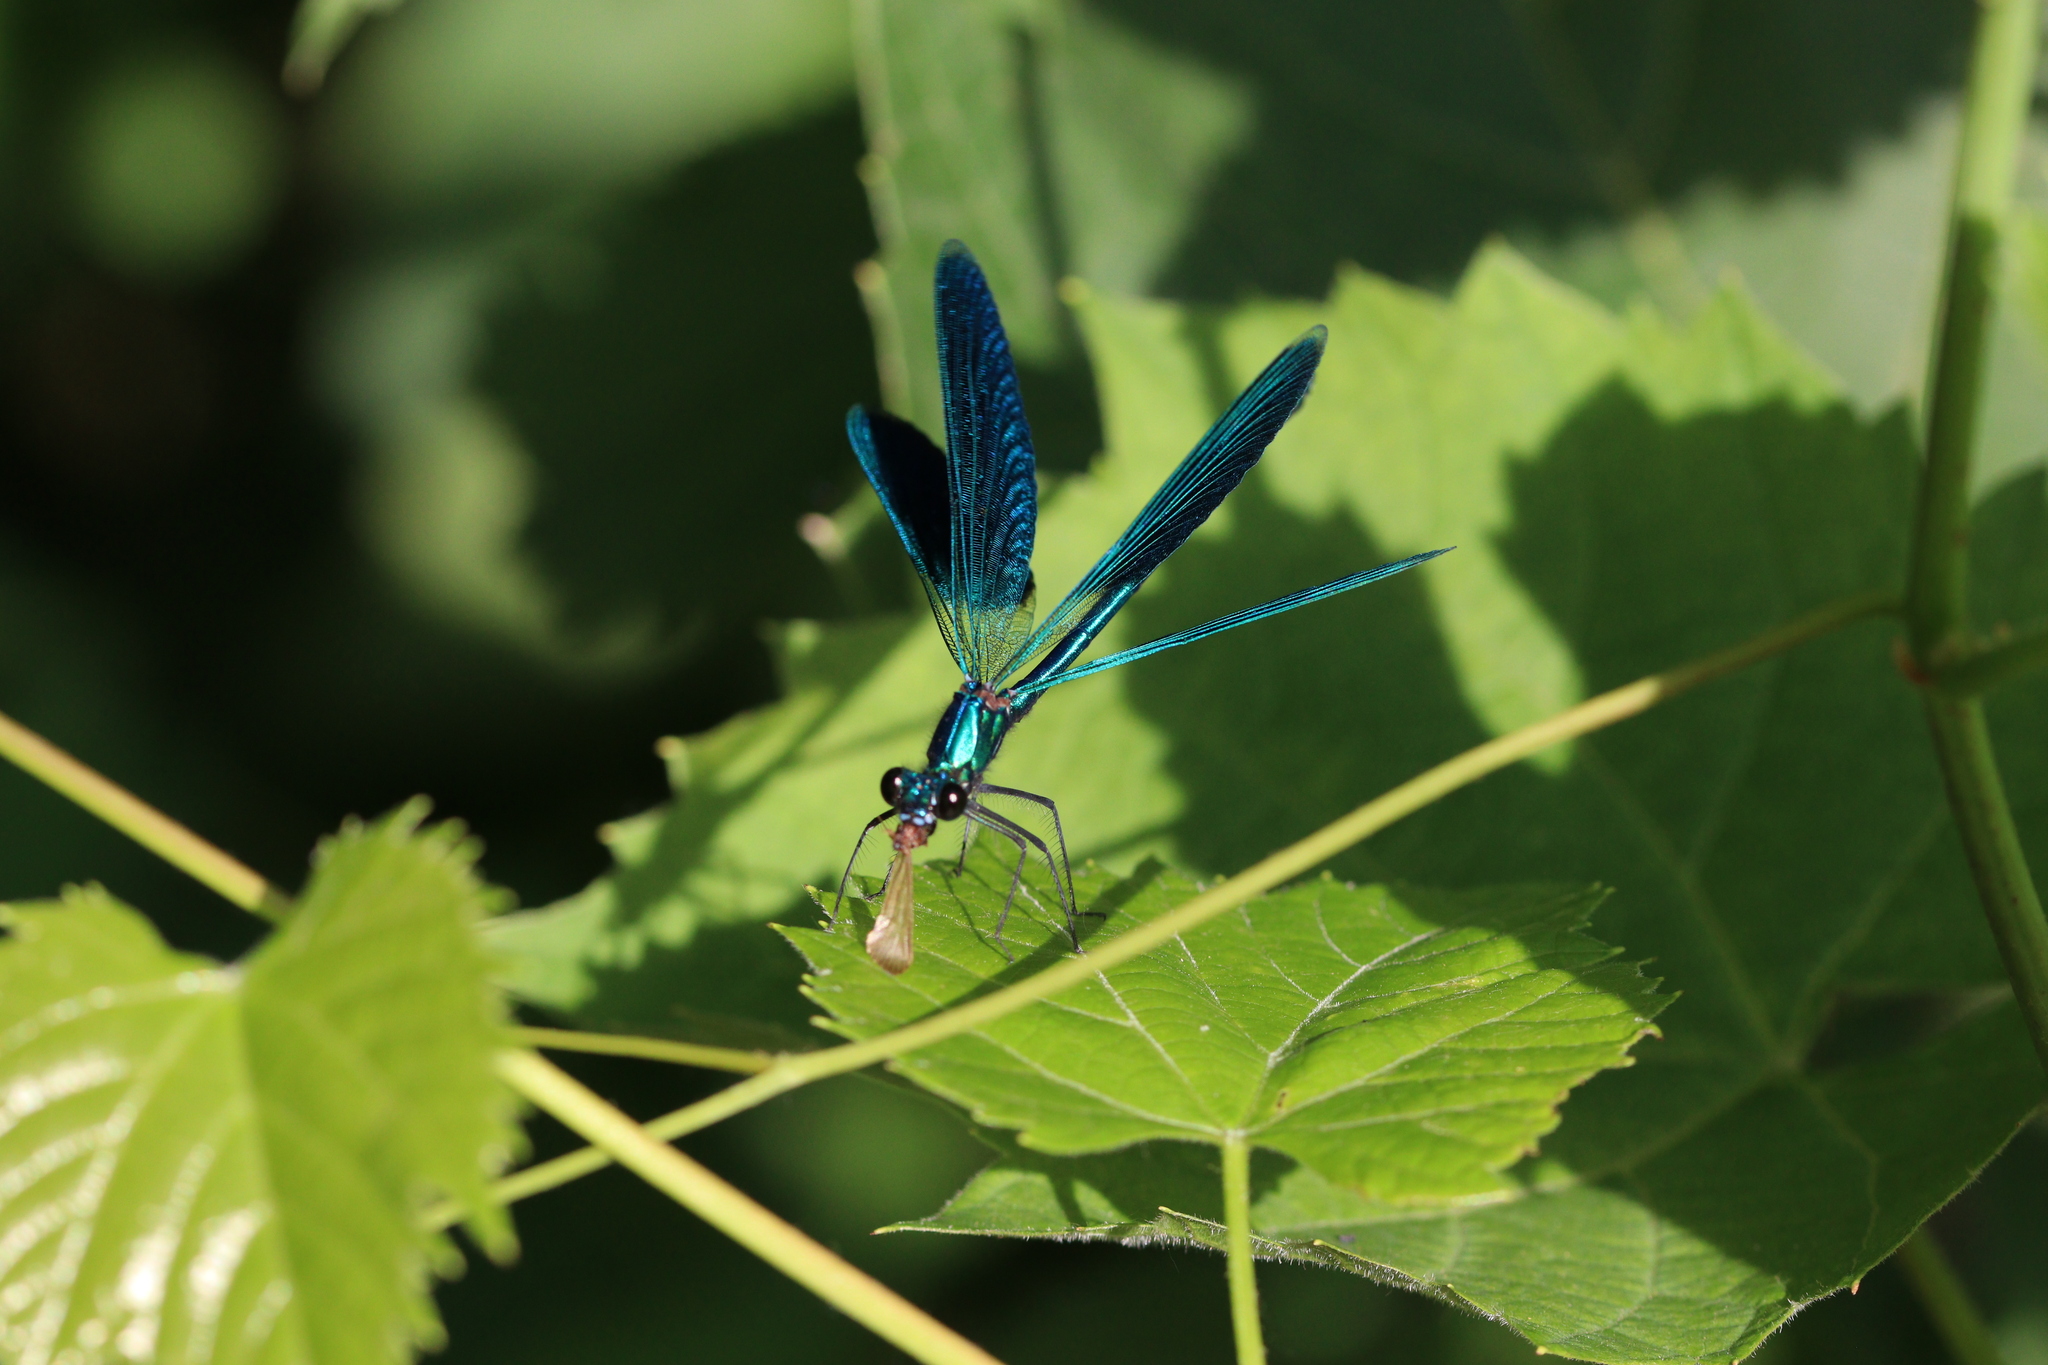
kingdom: Animalia
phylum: Arthropoda
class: Insecta
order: Odonata
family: Calopterygidae
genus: Calopteryx
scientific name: Calopteryx splendens
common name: Banded demoiselle
